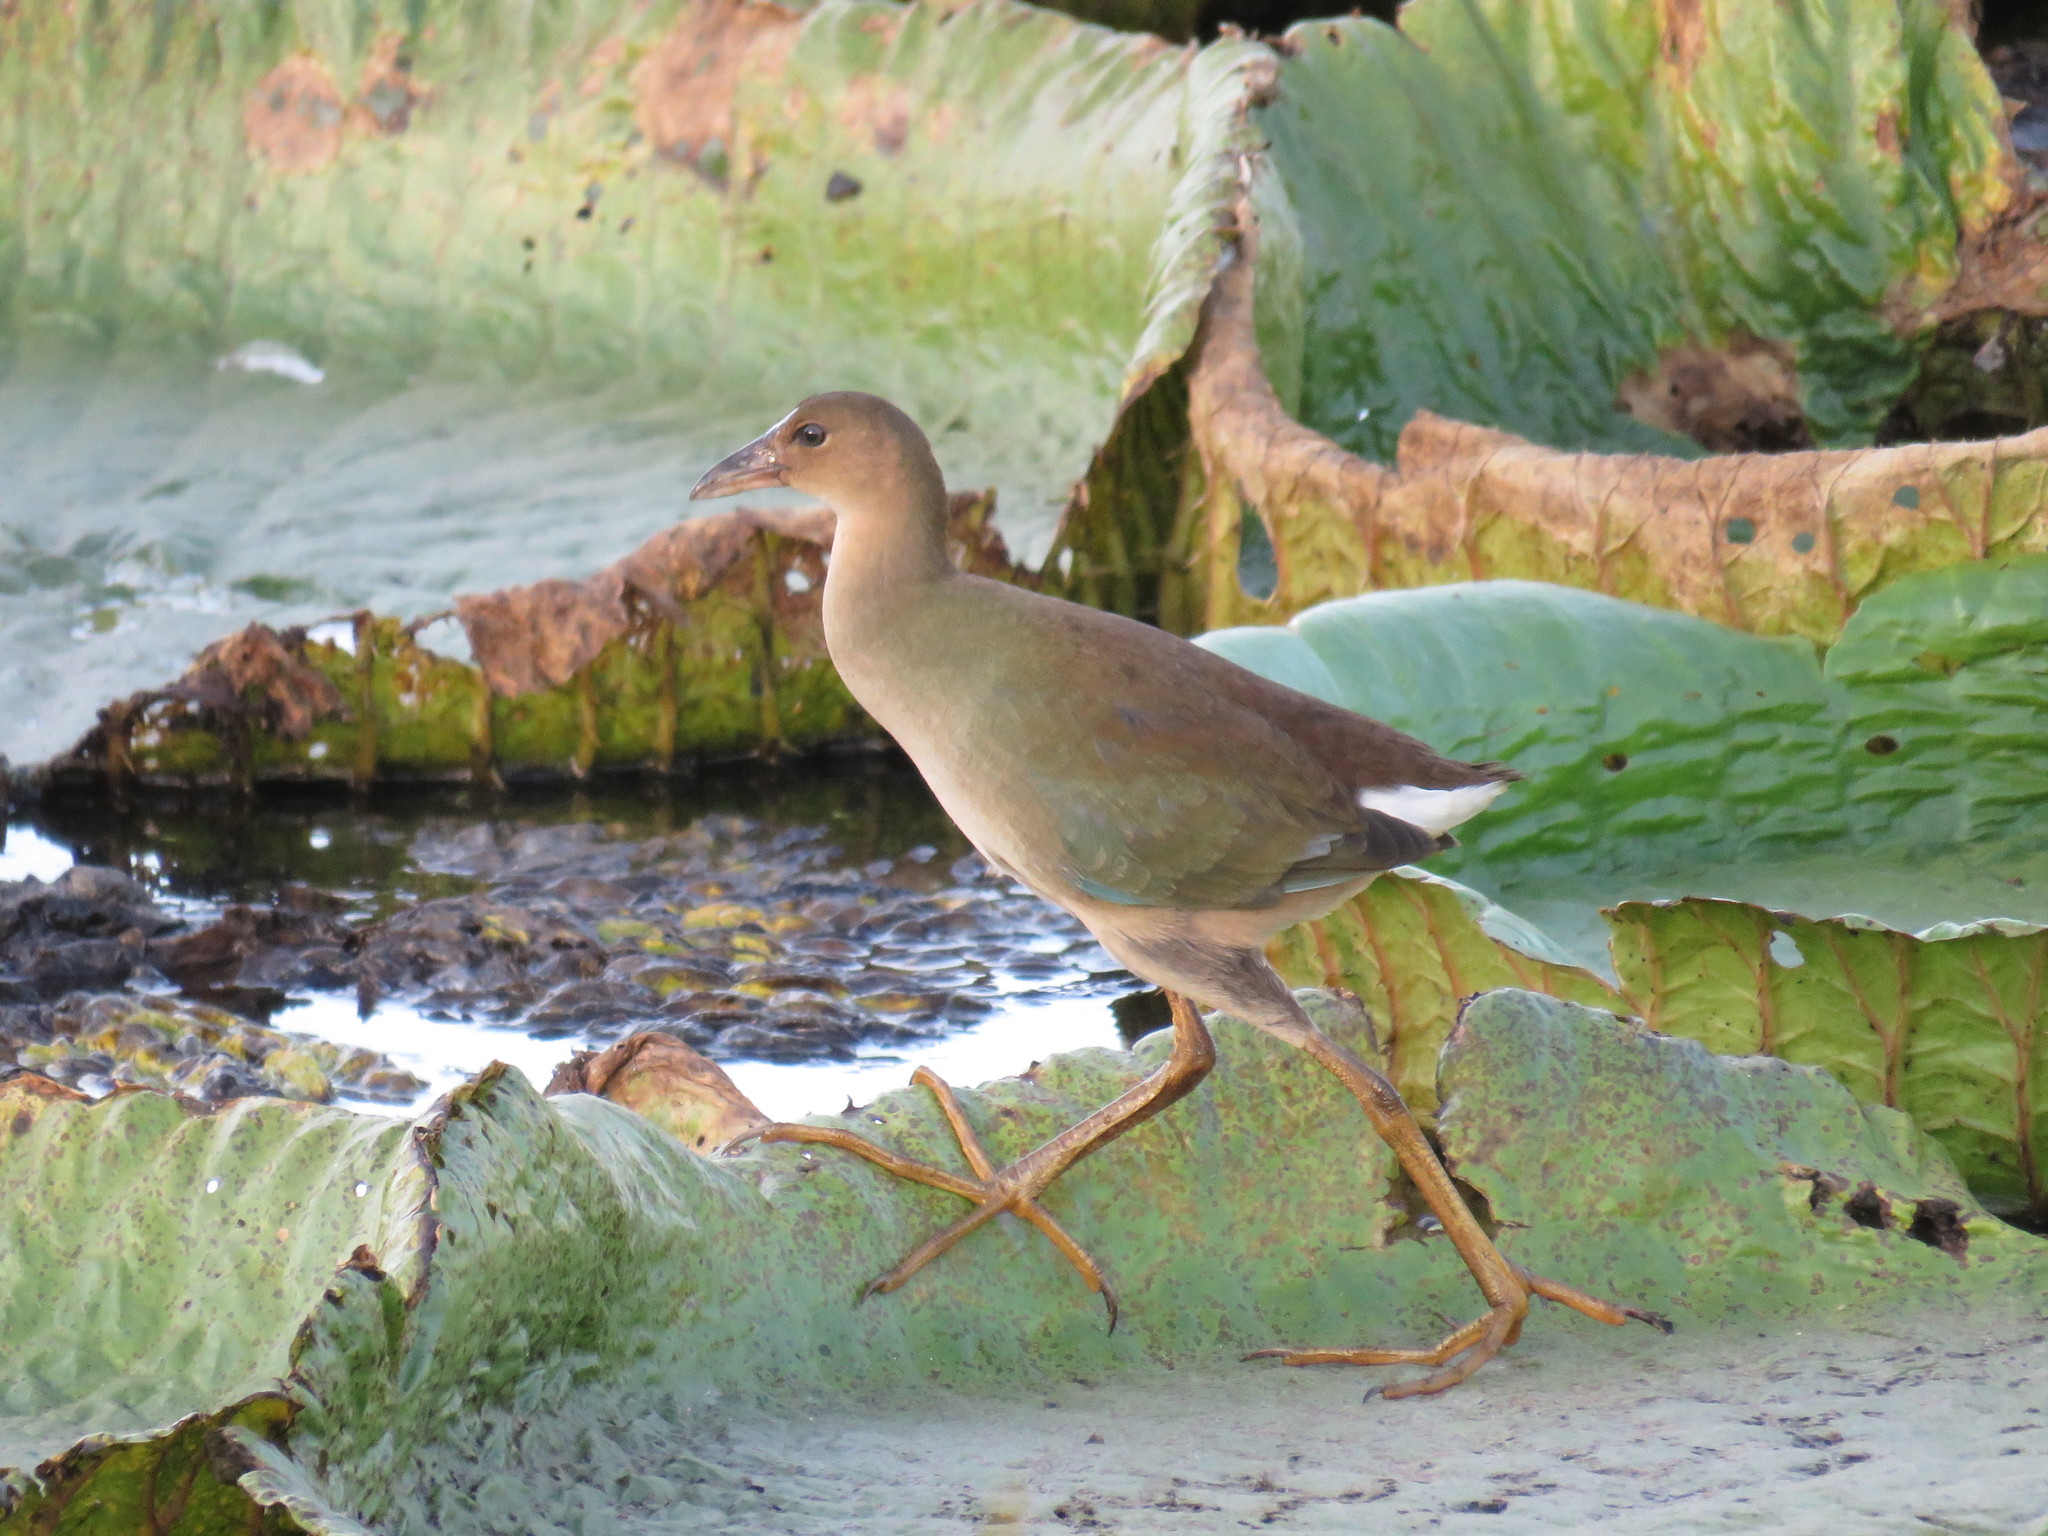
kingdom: Animalia
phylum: Chordata
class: Aves
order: Gruiformes
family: Rallidae
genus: Porphyrio
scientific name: Porphyrio martinica
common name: Purple gallinule
